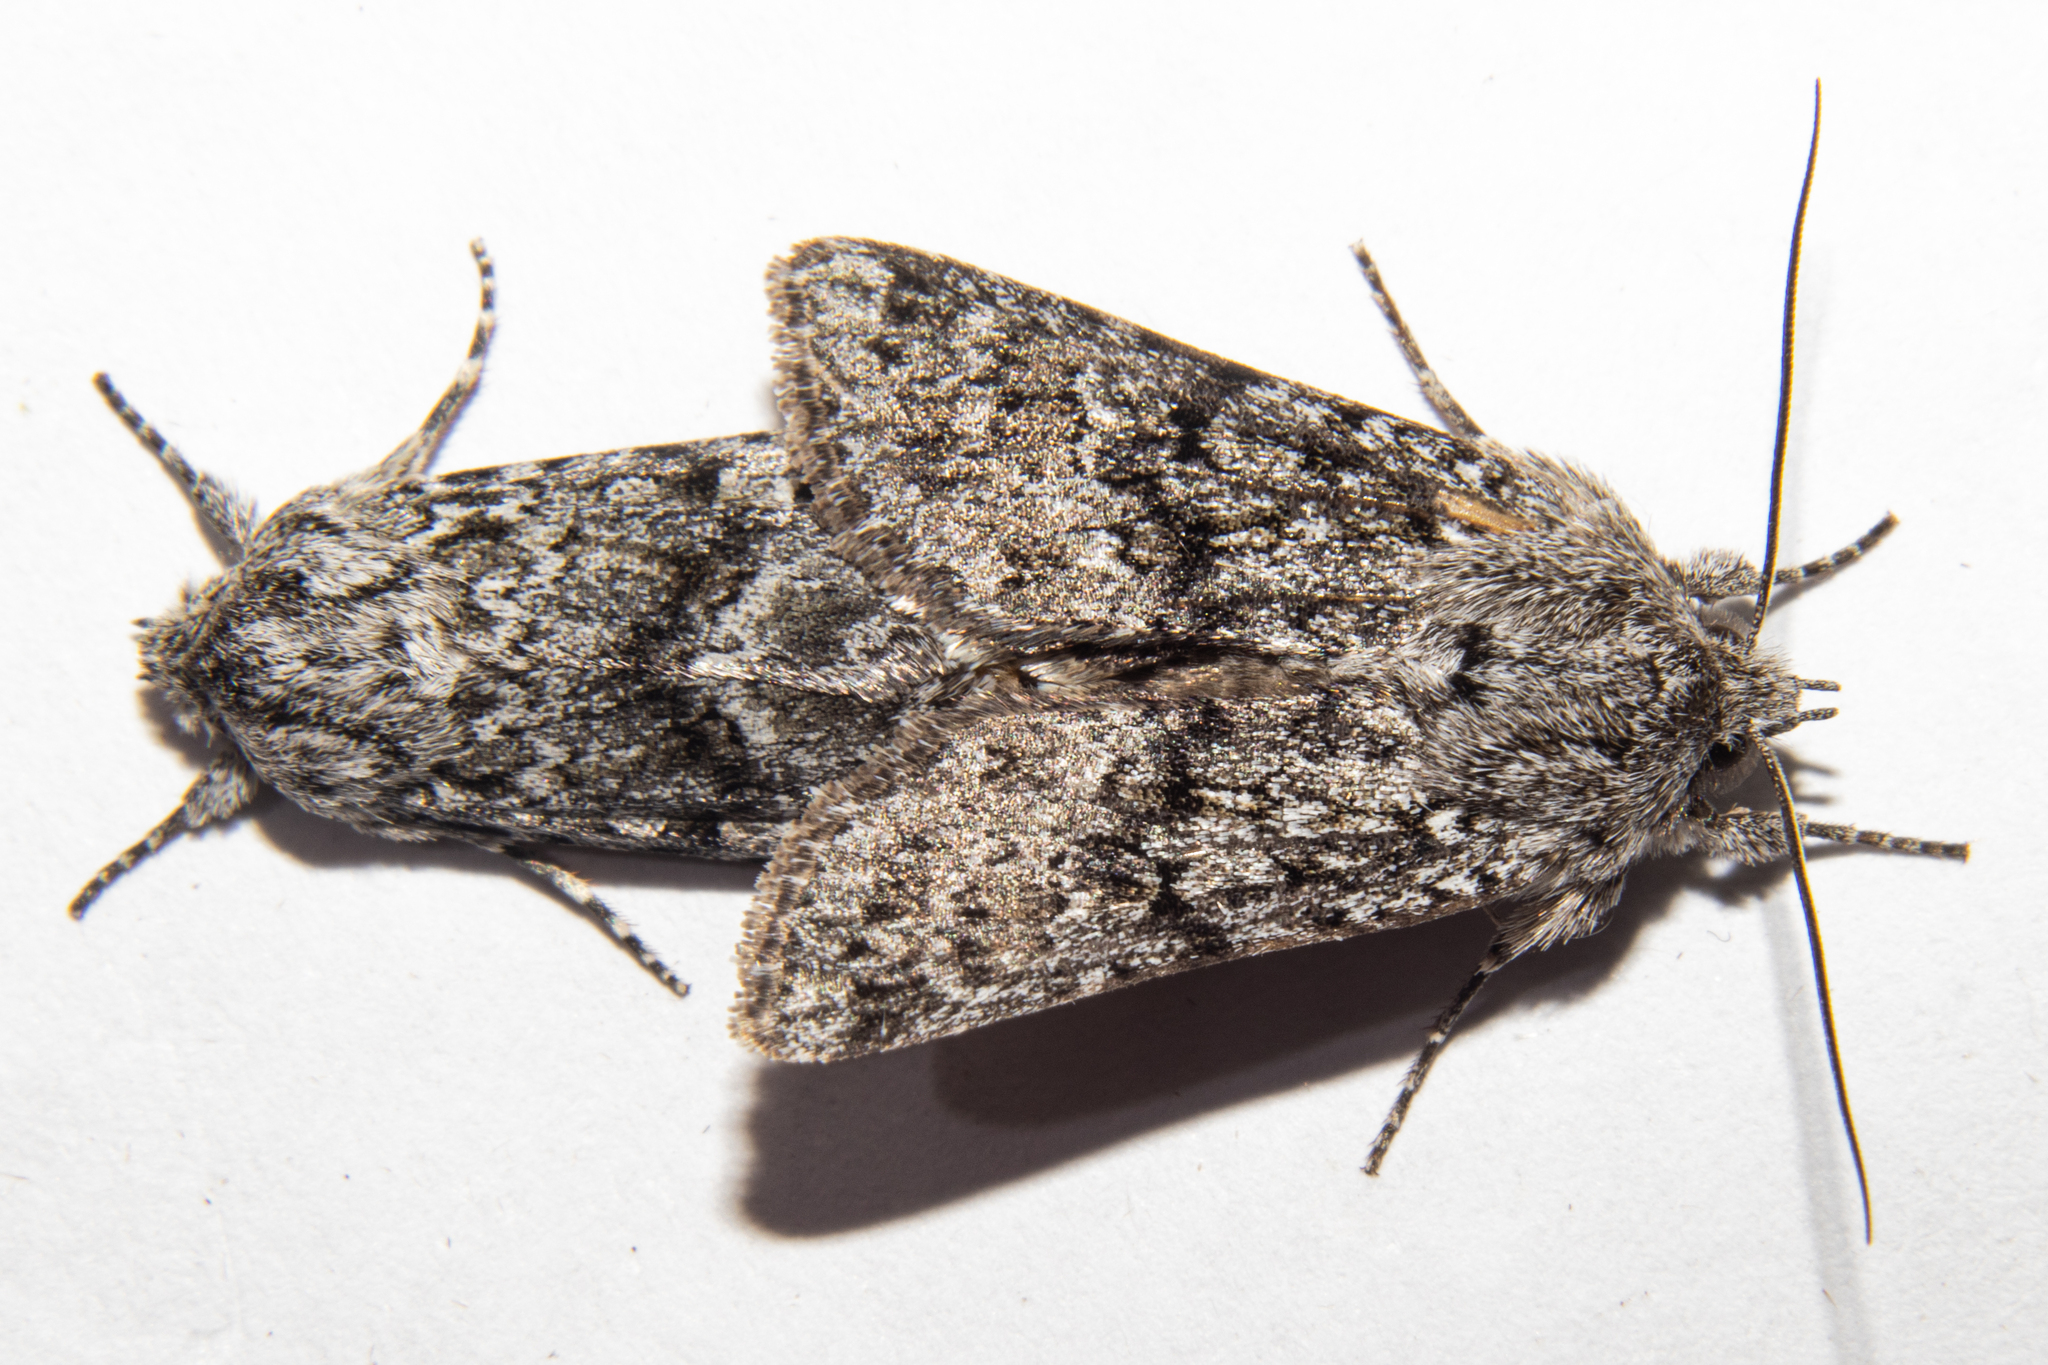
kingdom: Animalia
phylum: Arthropoda
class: Insecta
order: Lepidoptera
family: Noctuidae
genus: Physetica
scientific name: Physetica cucullina
